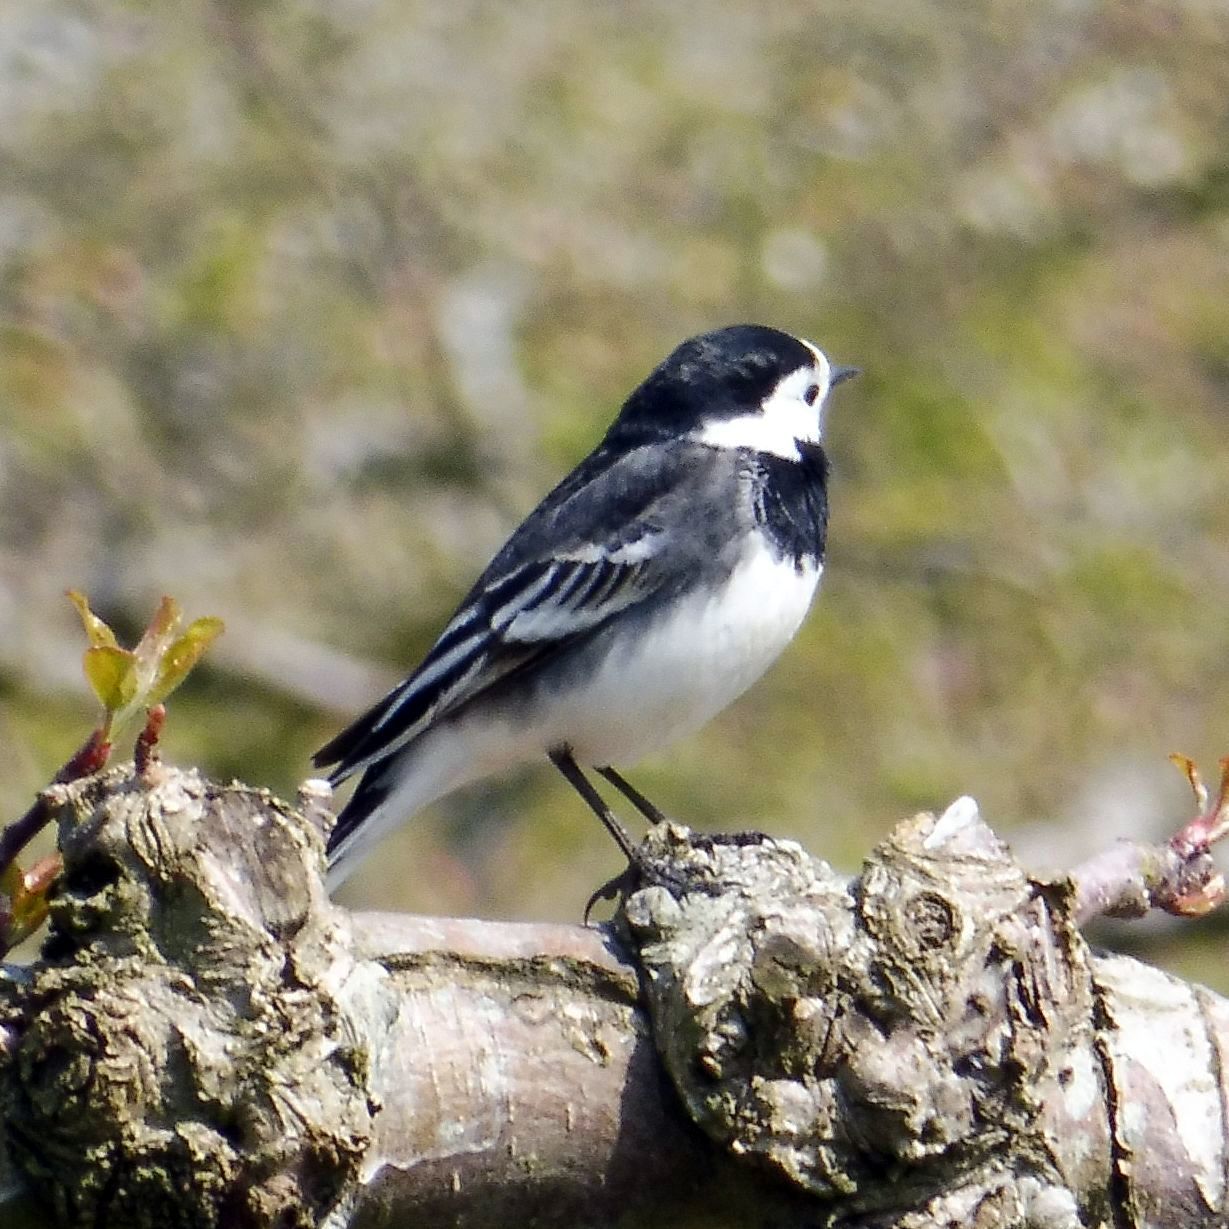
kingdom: Animalia
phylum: Chordata
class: Aves
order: Passeriformes
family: Motacillidae
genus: Motacilla
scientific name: Motacilla alba
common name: White wagtail
